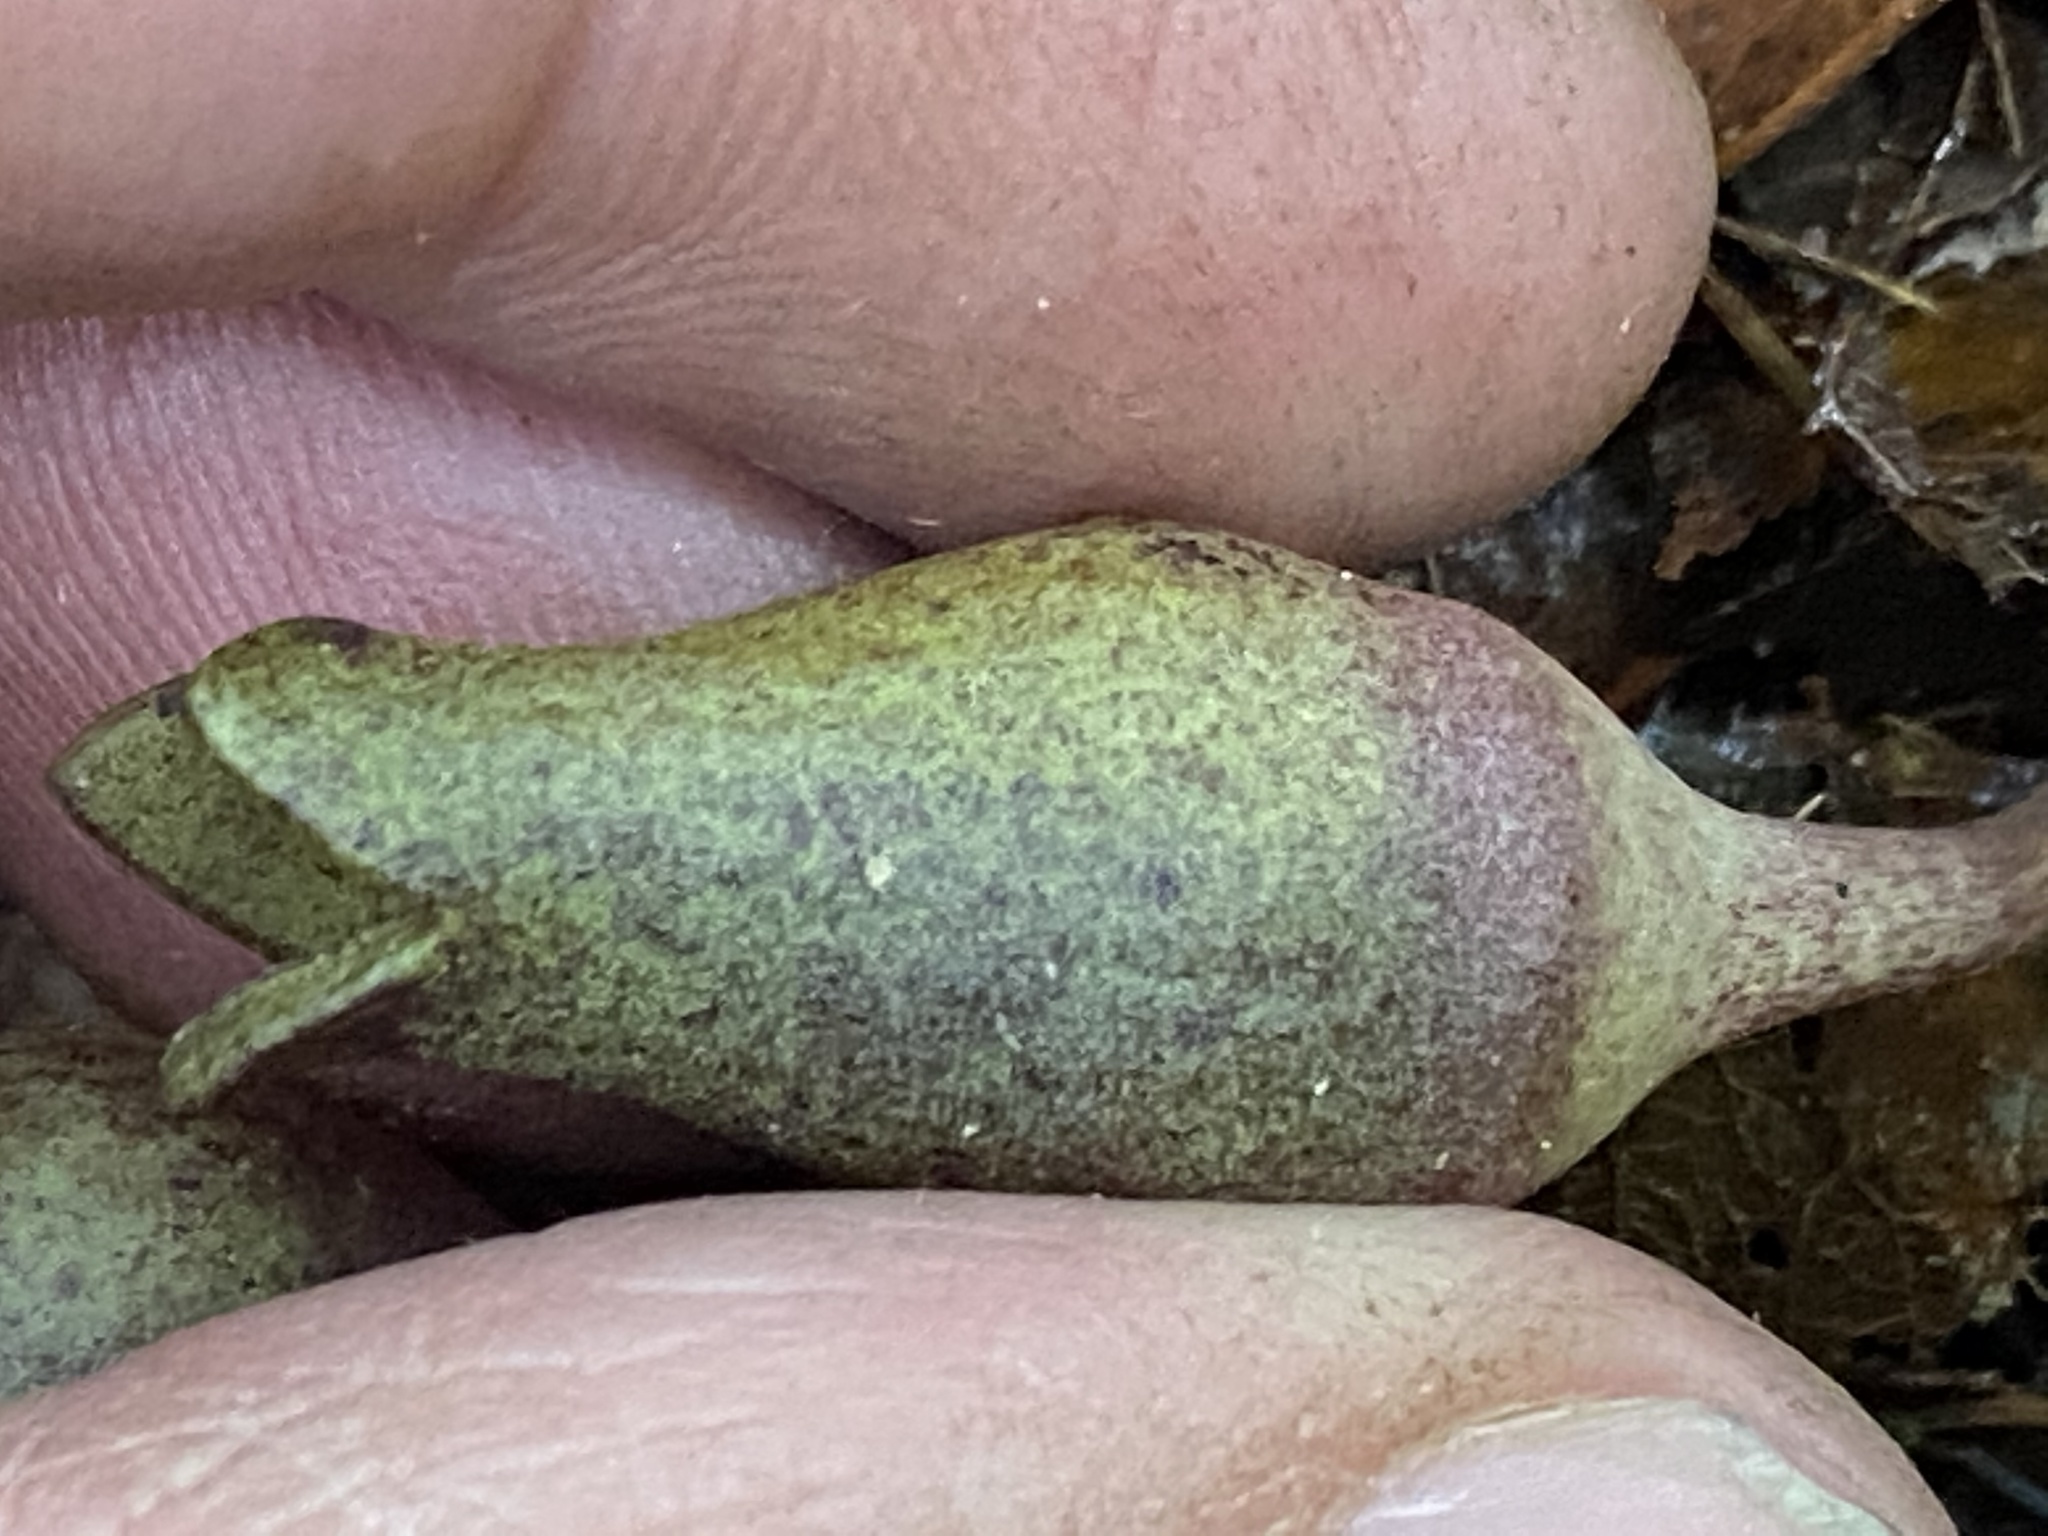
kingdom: Plantae
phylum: Tracheophyta
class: Magnoliopsida
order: Piperales
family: Aristolochiaceae
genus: Hexastylis
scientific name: Hexastylis arifolia
